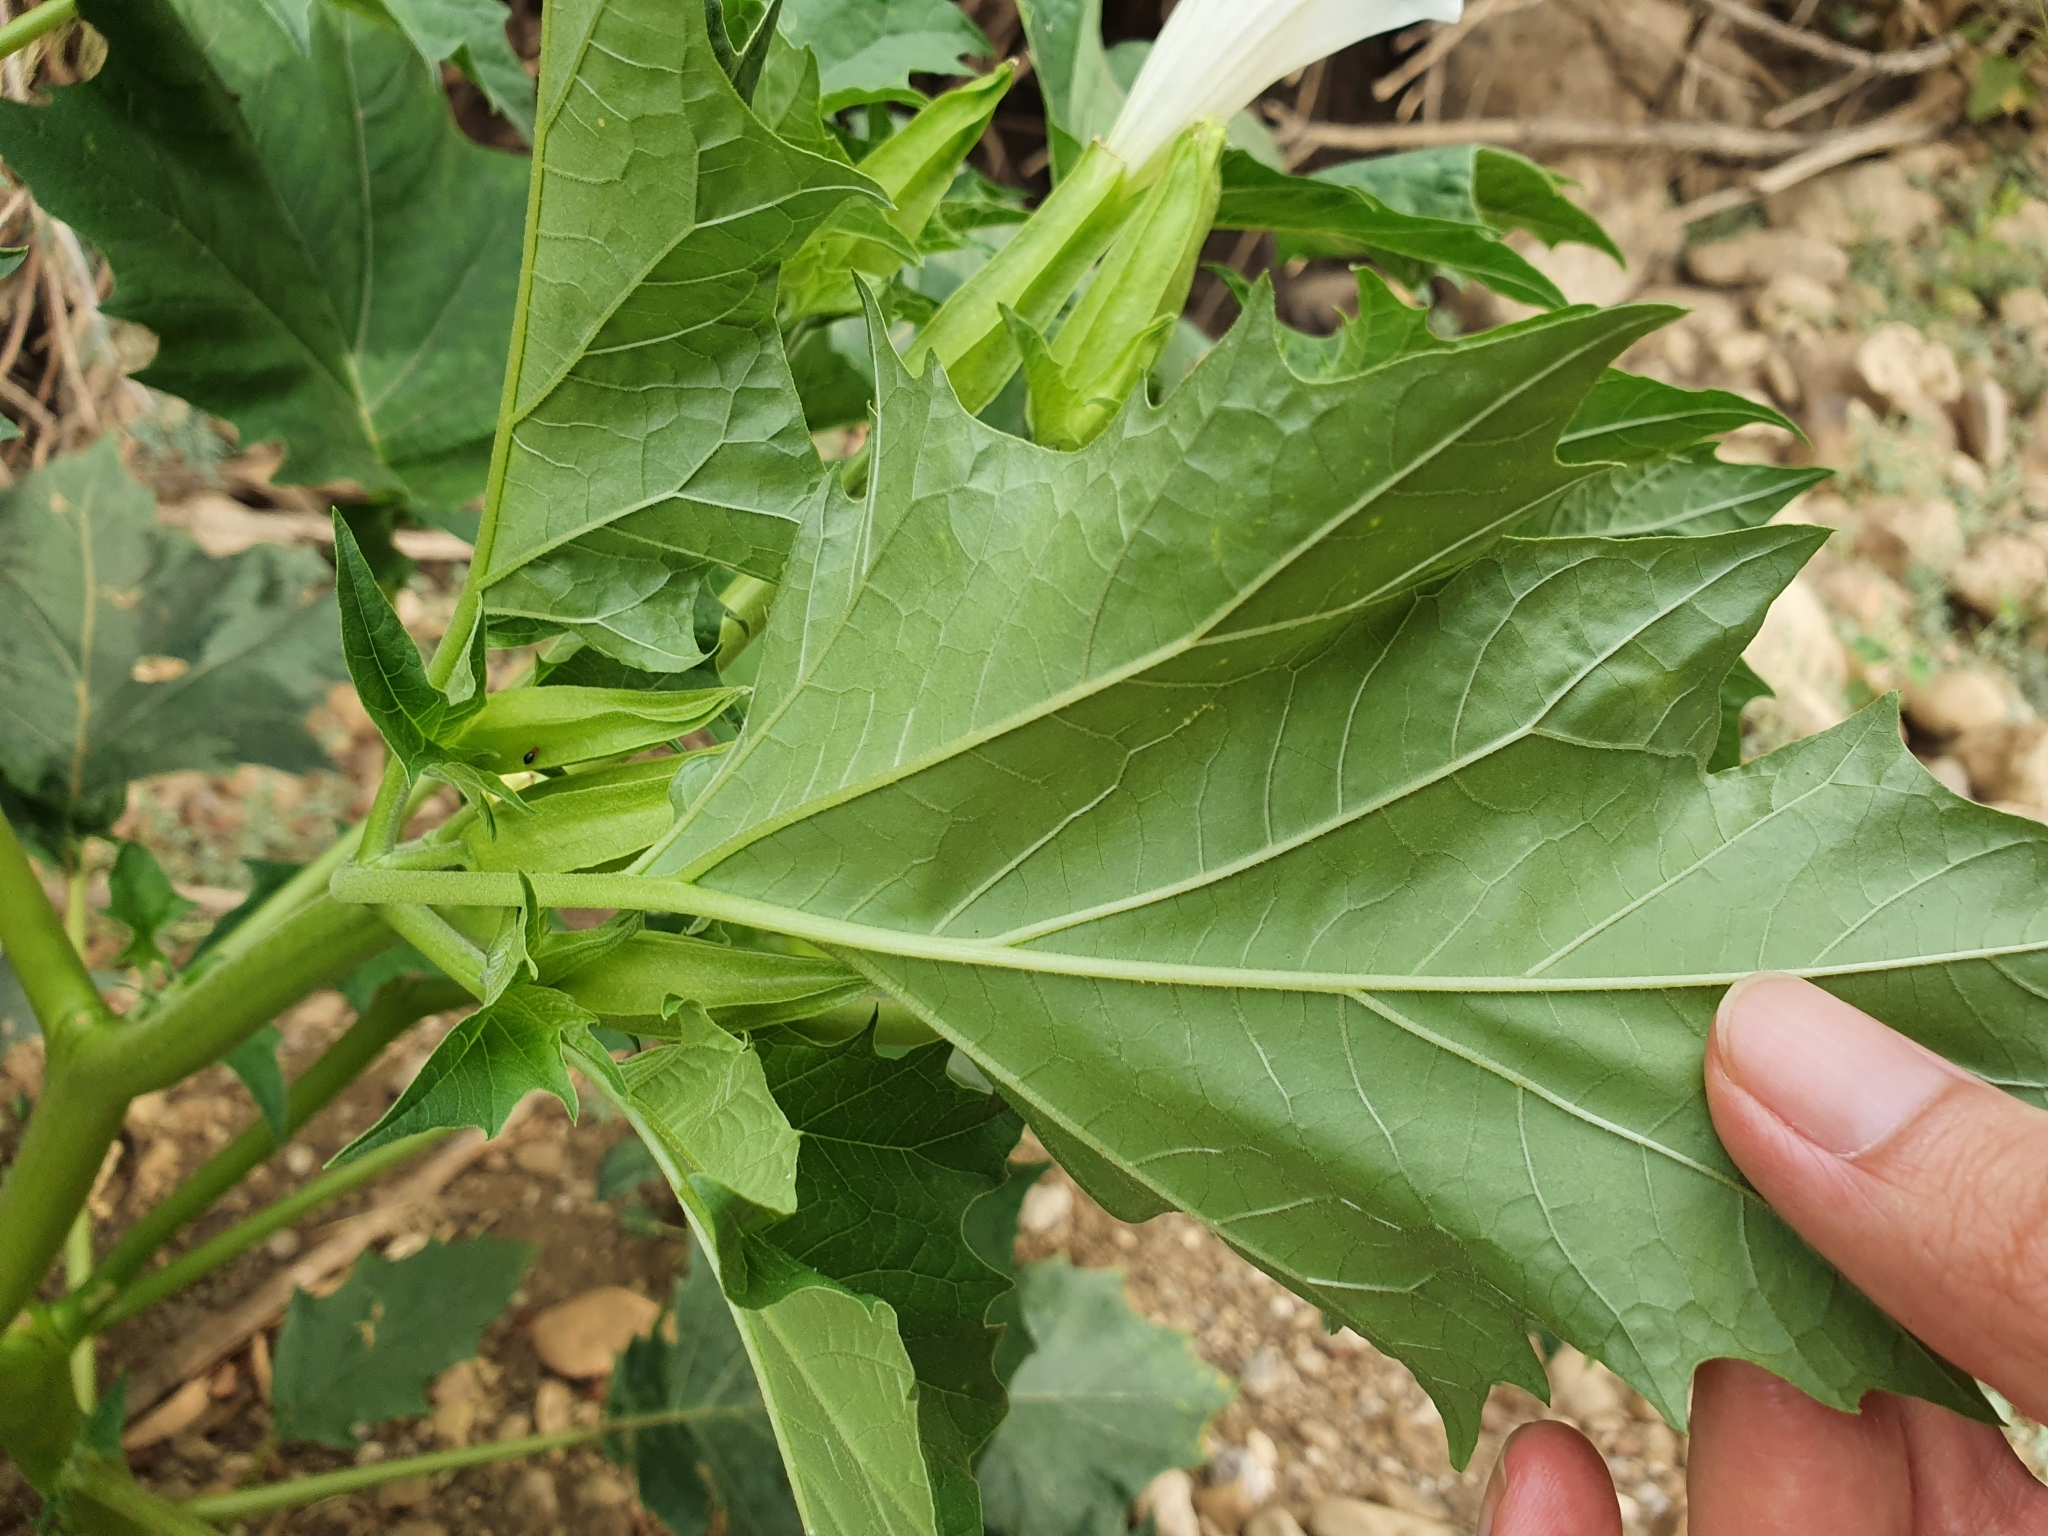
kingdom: Plantae
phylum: Tracheophyta
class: Magnoliopsida
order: Solanales
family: Solanaceae
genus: Datura
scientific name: Datura stramonium
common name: Thorn-apple
